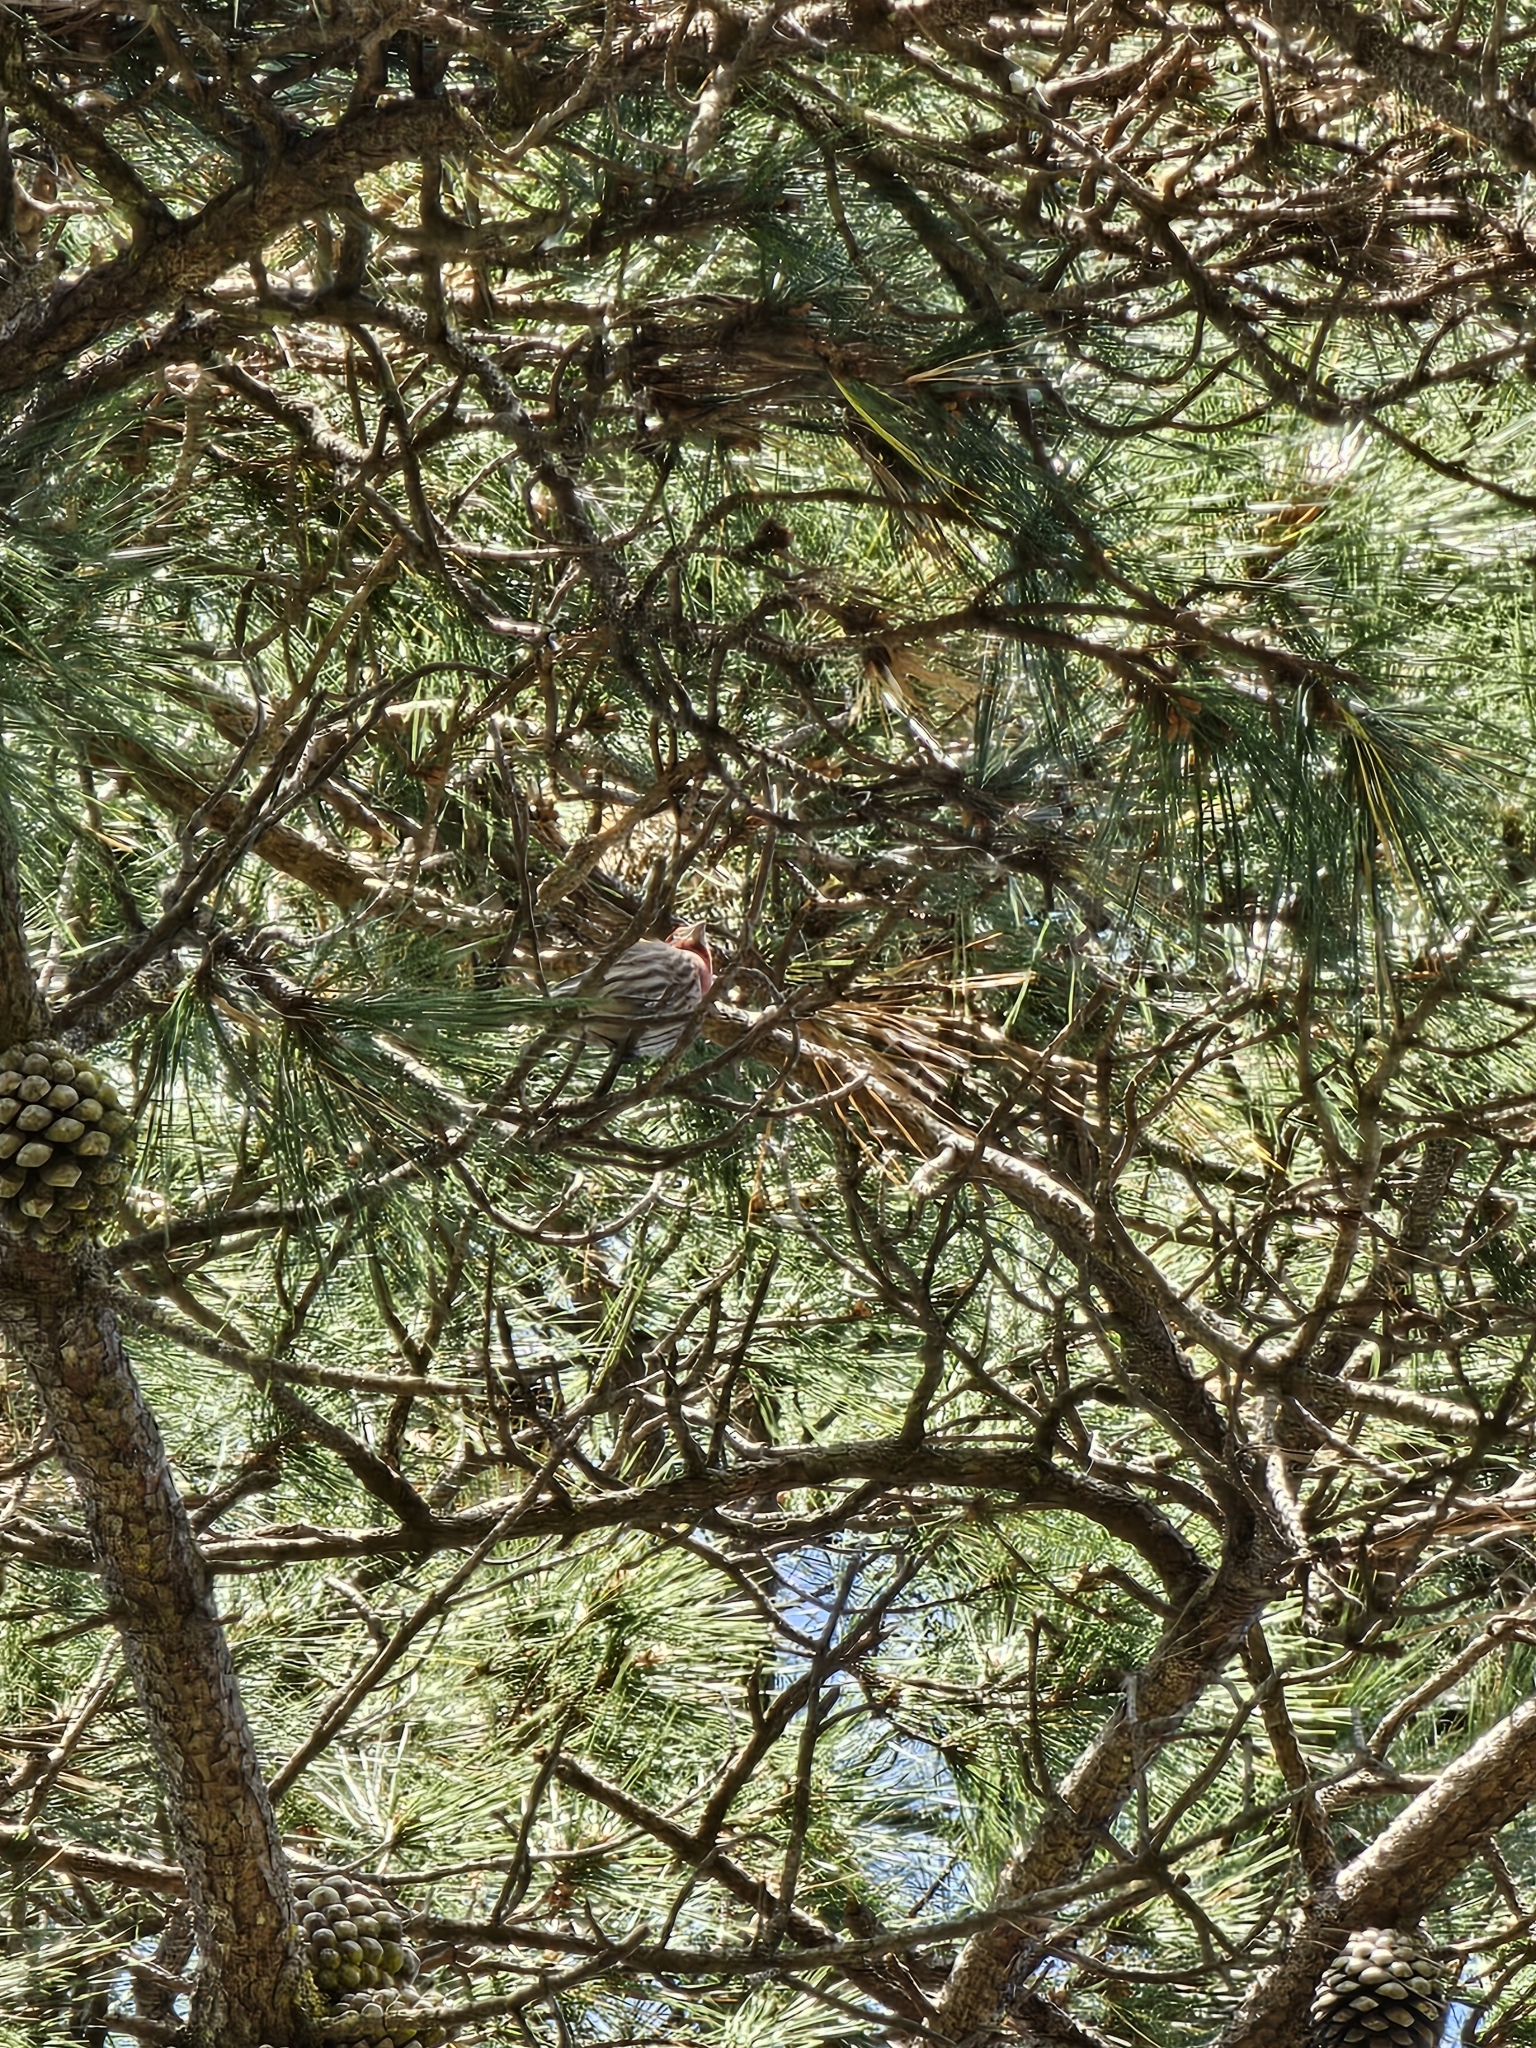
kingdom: Animalia
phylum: Chordata
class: Aves
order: Passeriformes
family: Fringillidae
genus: Haemorhous
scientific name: Haemorhous mexicanus
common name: House finch
